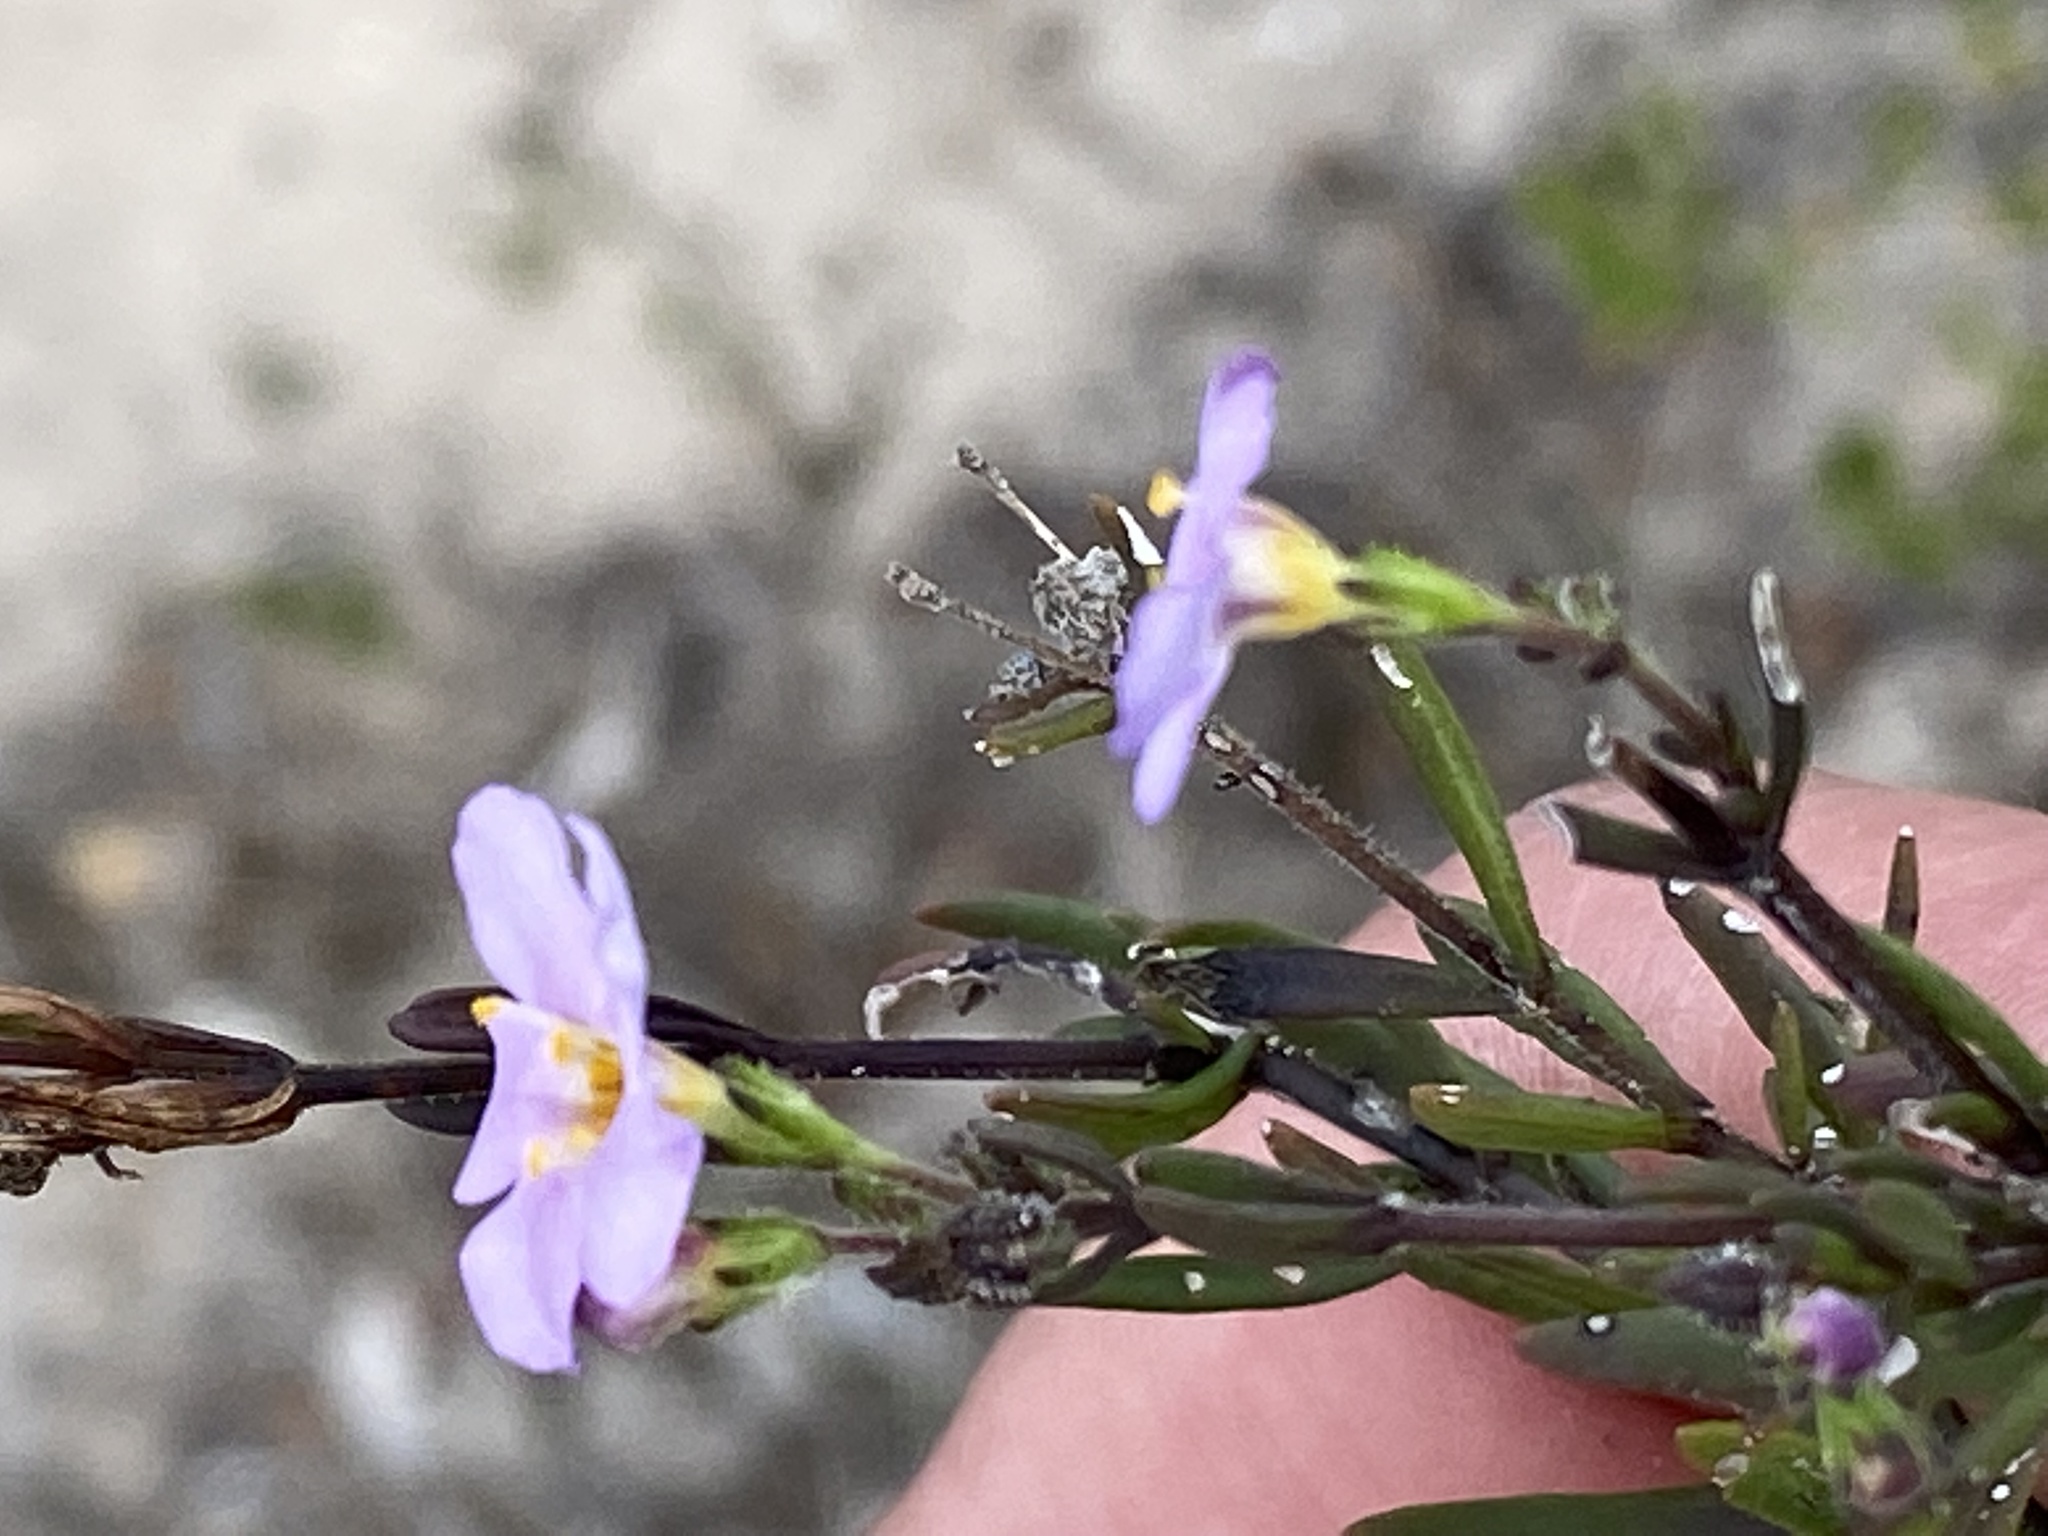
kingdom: Plantae
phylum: Tracheophyta
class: Magnoliopsida
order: Lamiales
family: Scrophulariaceae
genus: Chaenostoma
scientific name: Chaenostoma placidum
